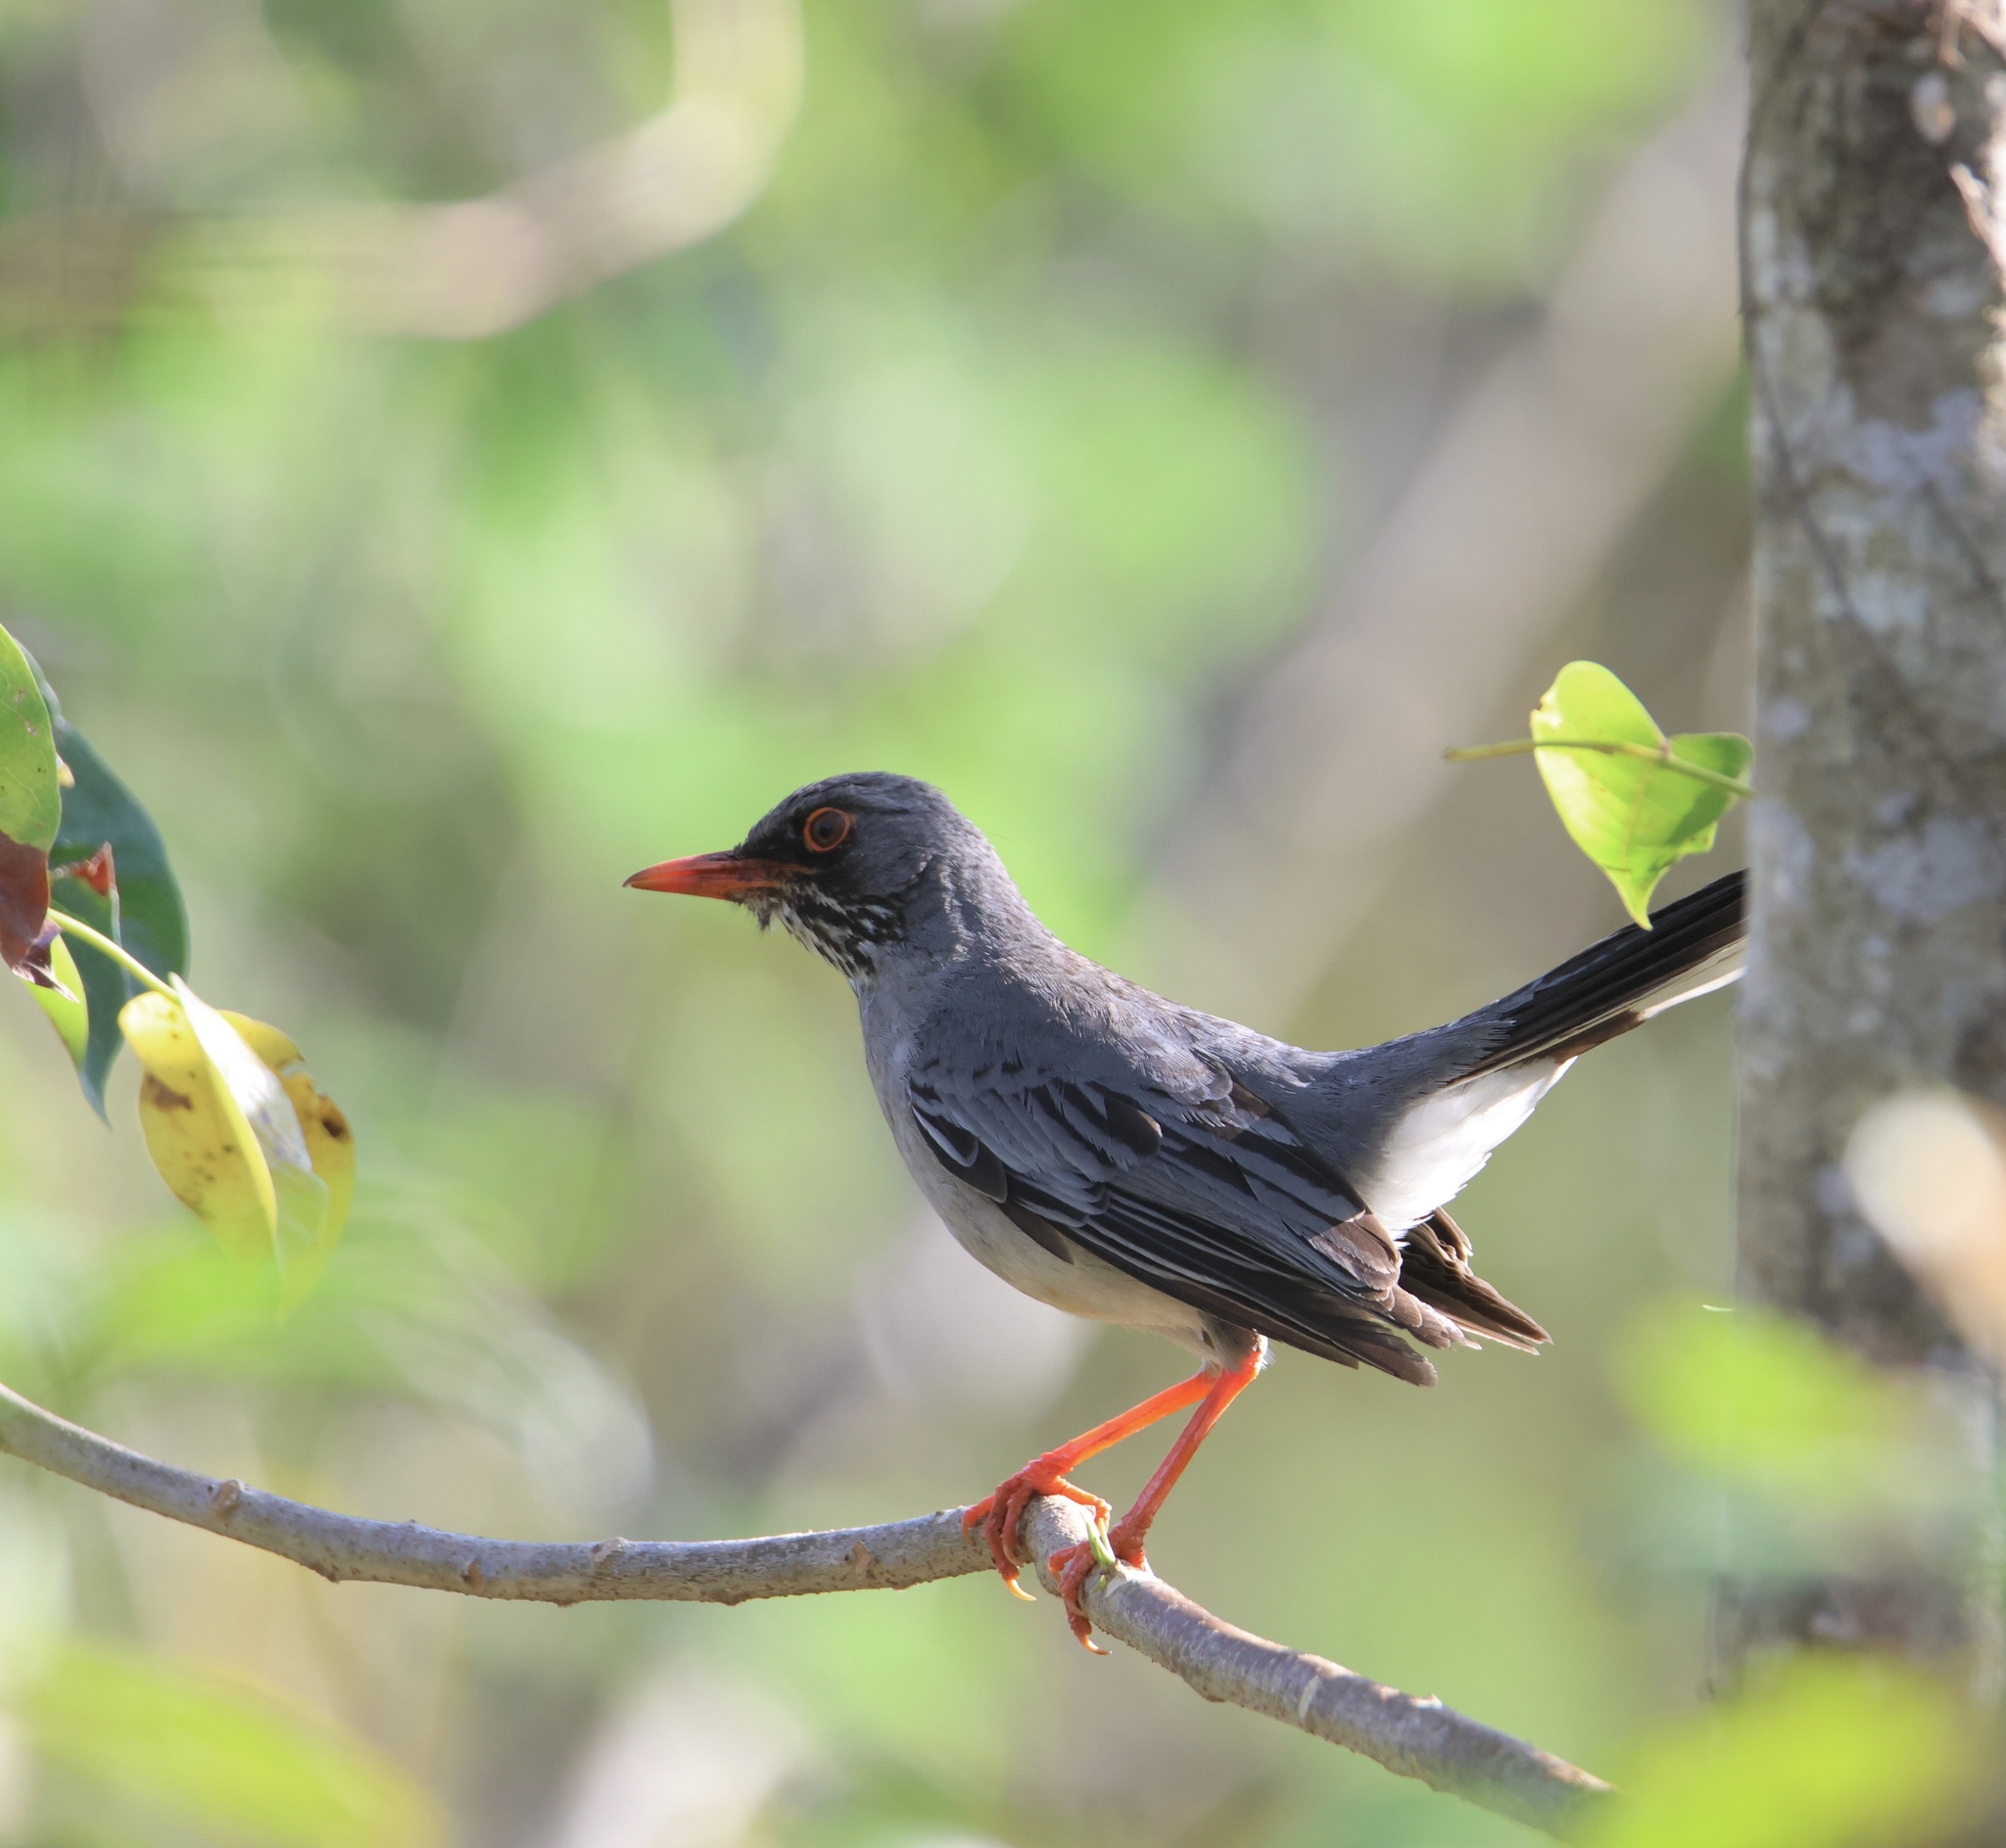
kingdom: Animalia
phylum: Chordata
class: Aves
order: Passeriformes
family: Turdidae
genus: Turdus
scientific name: Turdus plumbeus
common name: Red-legged thrush
